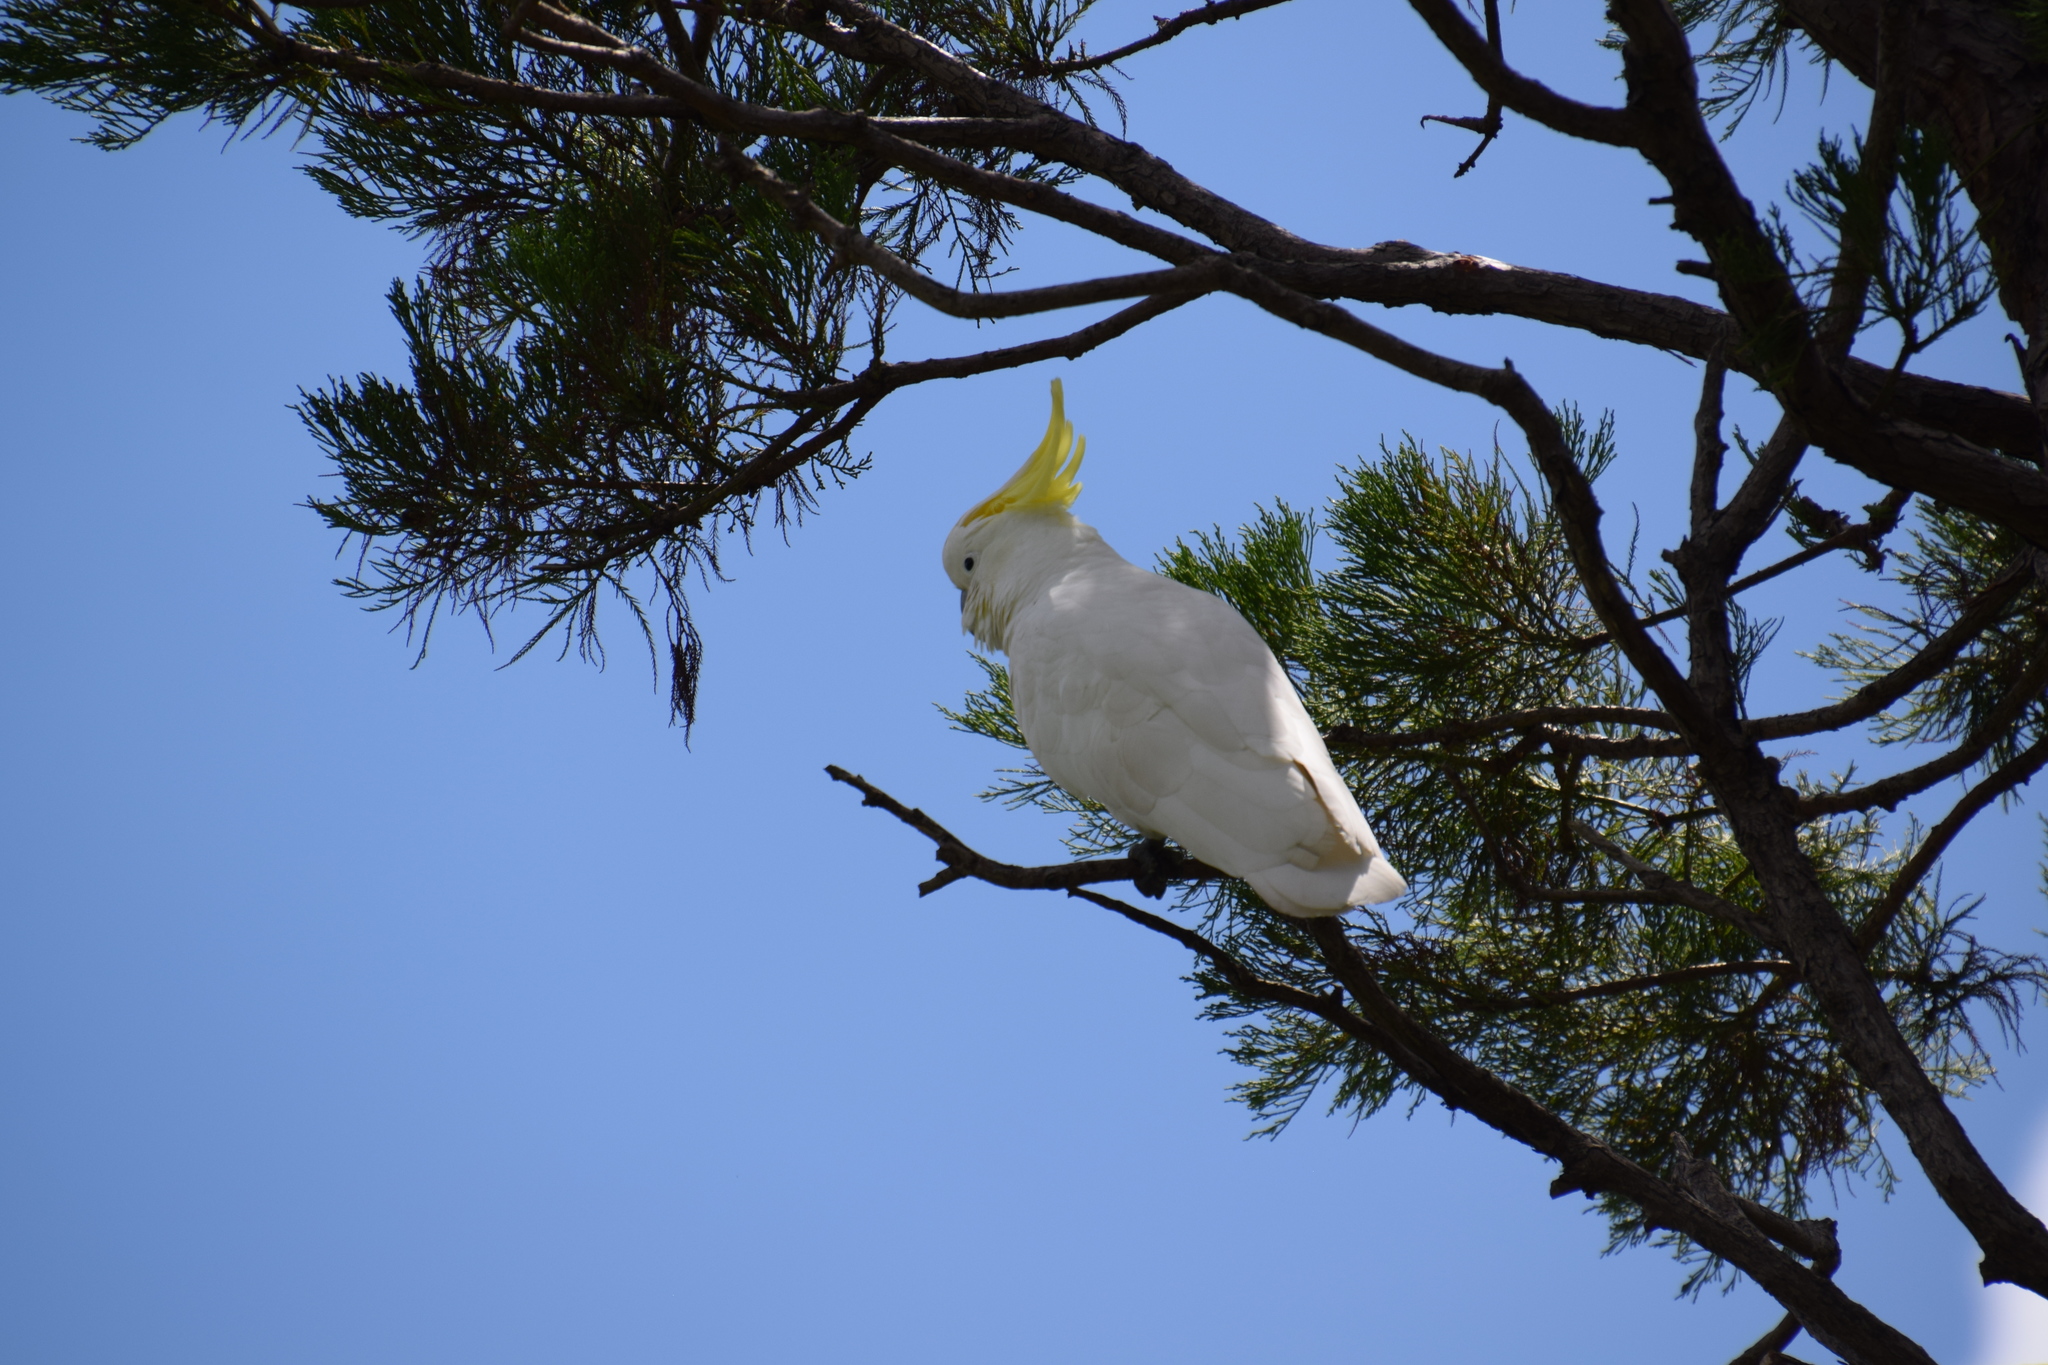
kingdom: Animalia
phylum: Chordata
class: Aves
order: Psittaciformes
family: Psittacidae
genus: Cacatua
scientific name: Cacatua galerita
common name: Sulphur-crested cockatoo
